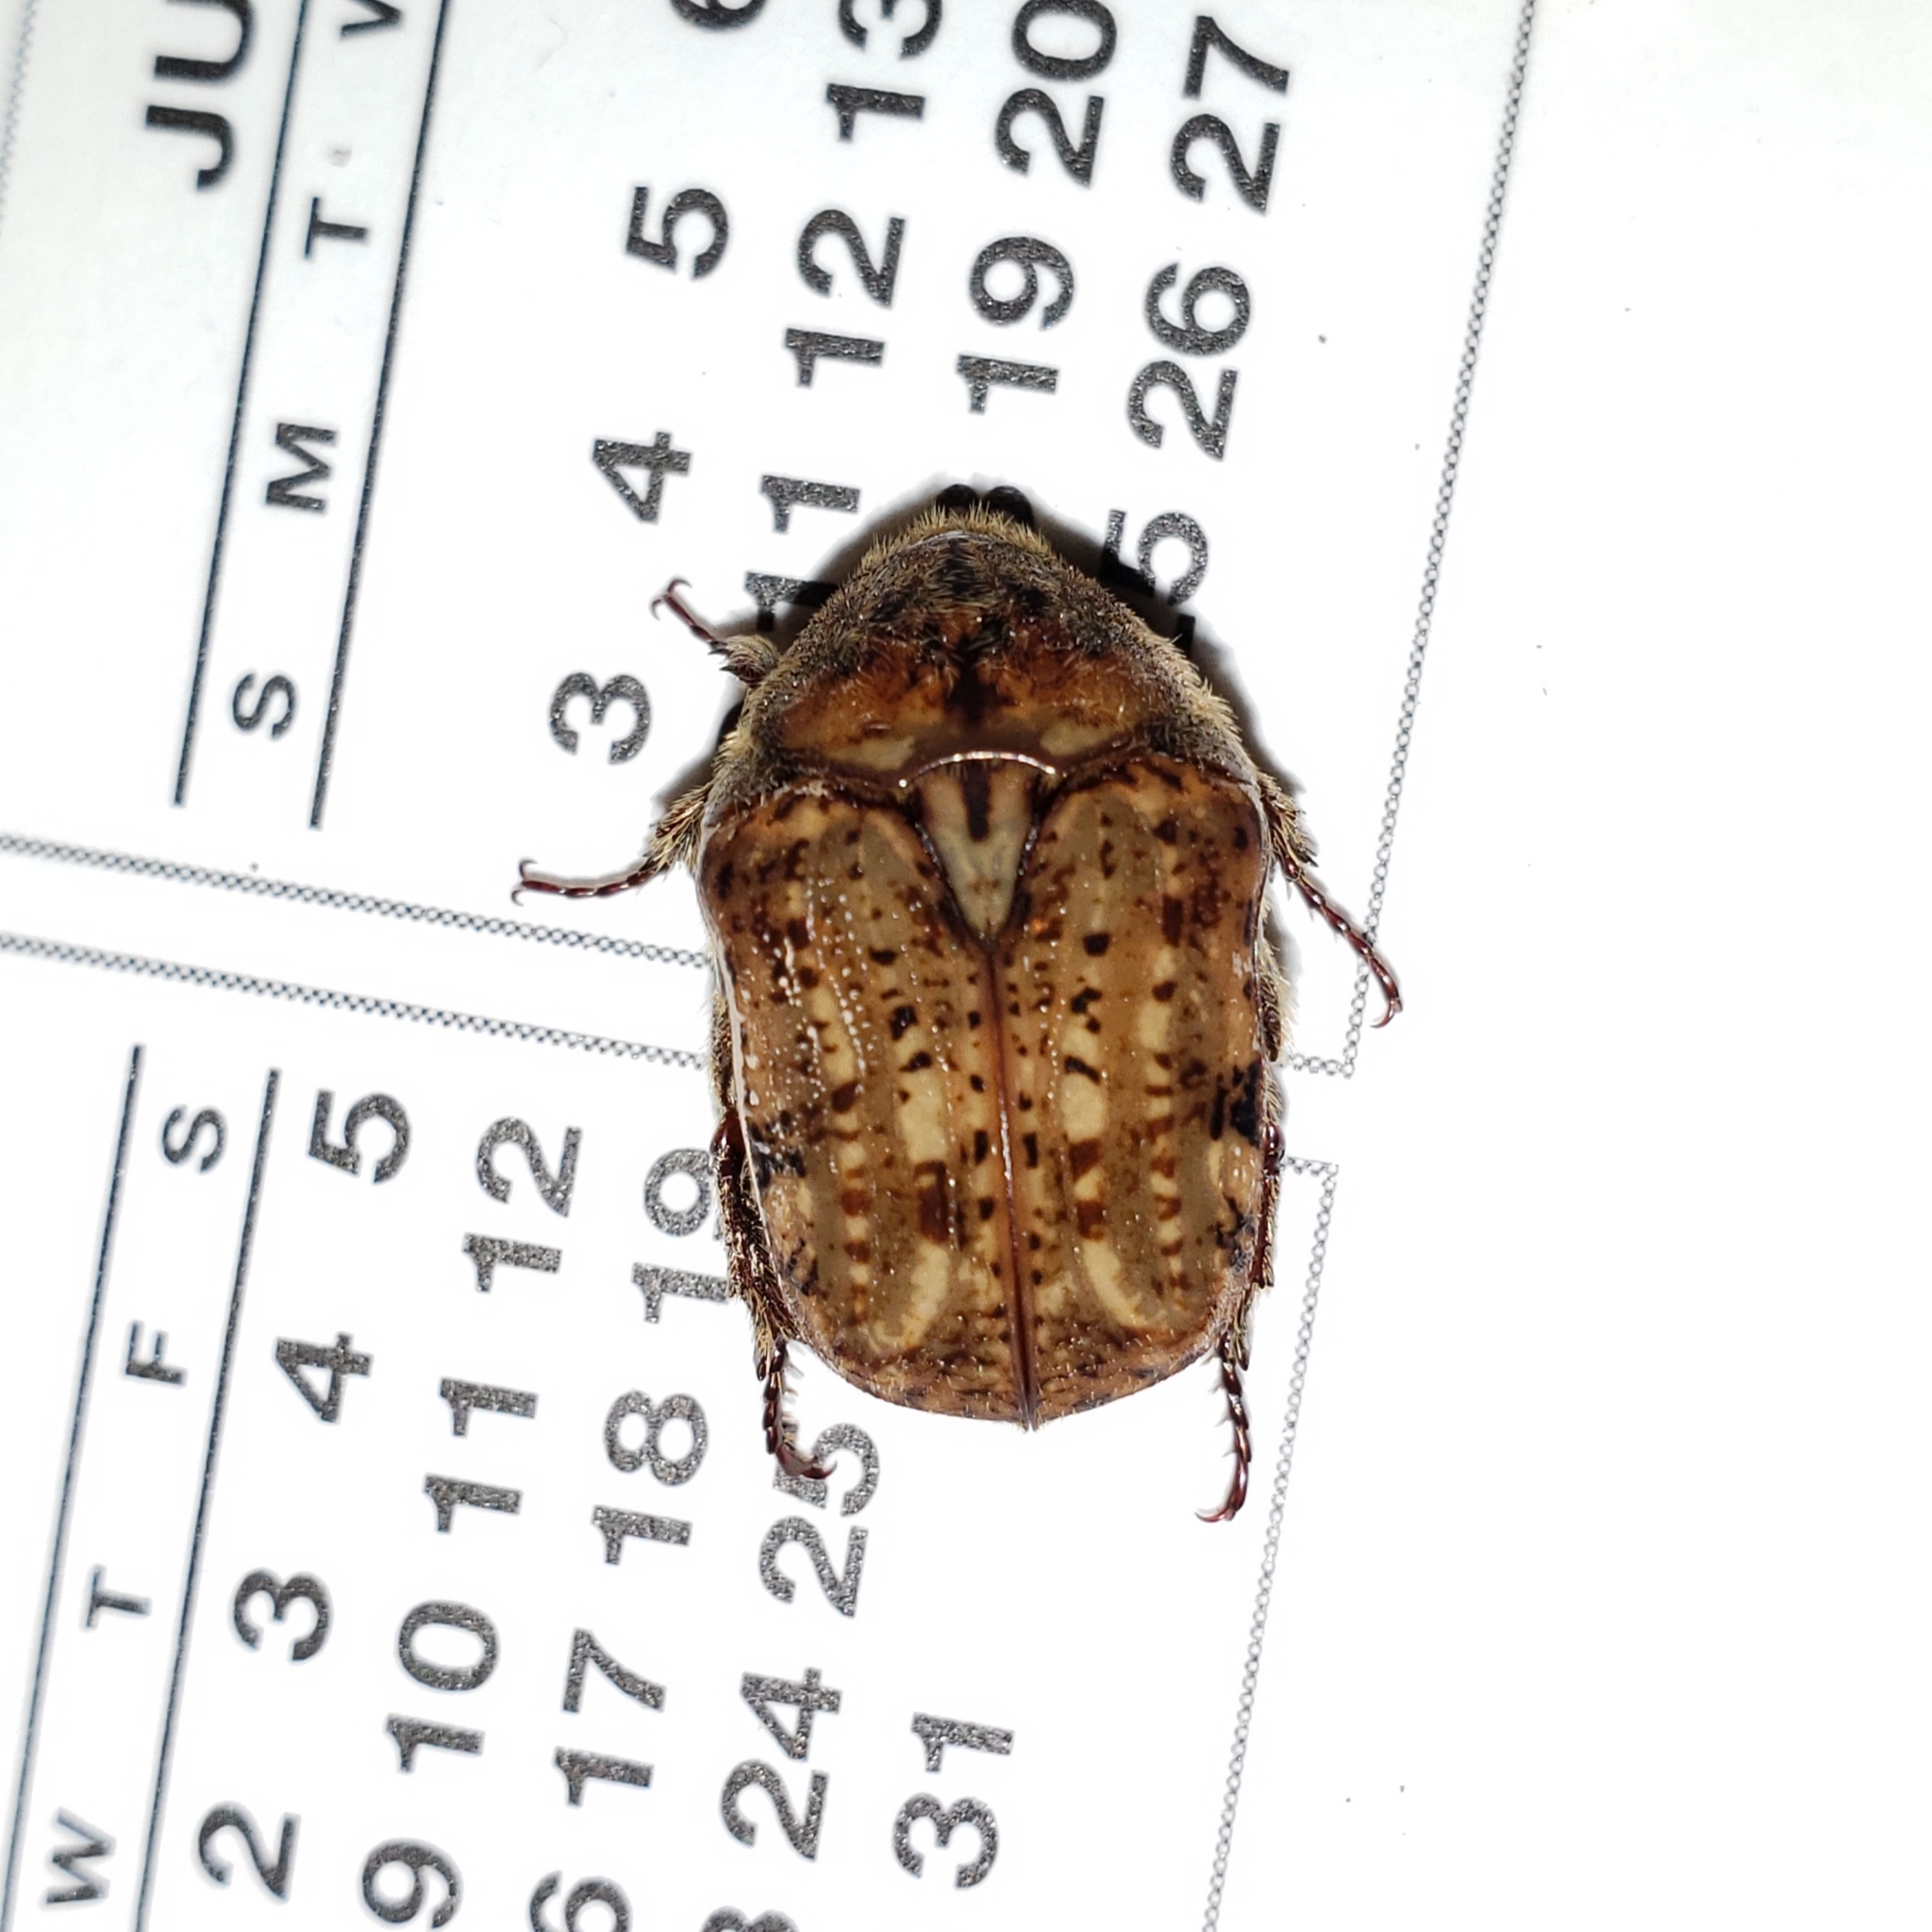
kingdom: Animalia
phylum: Arthropoda
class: Insecta
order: Coleoptera
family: Scarabaeidae
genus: Euphoria
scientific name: Euphoria inda
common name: Bumble flower beetle
